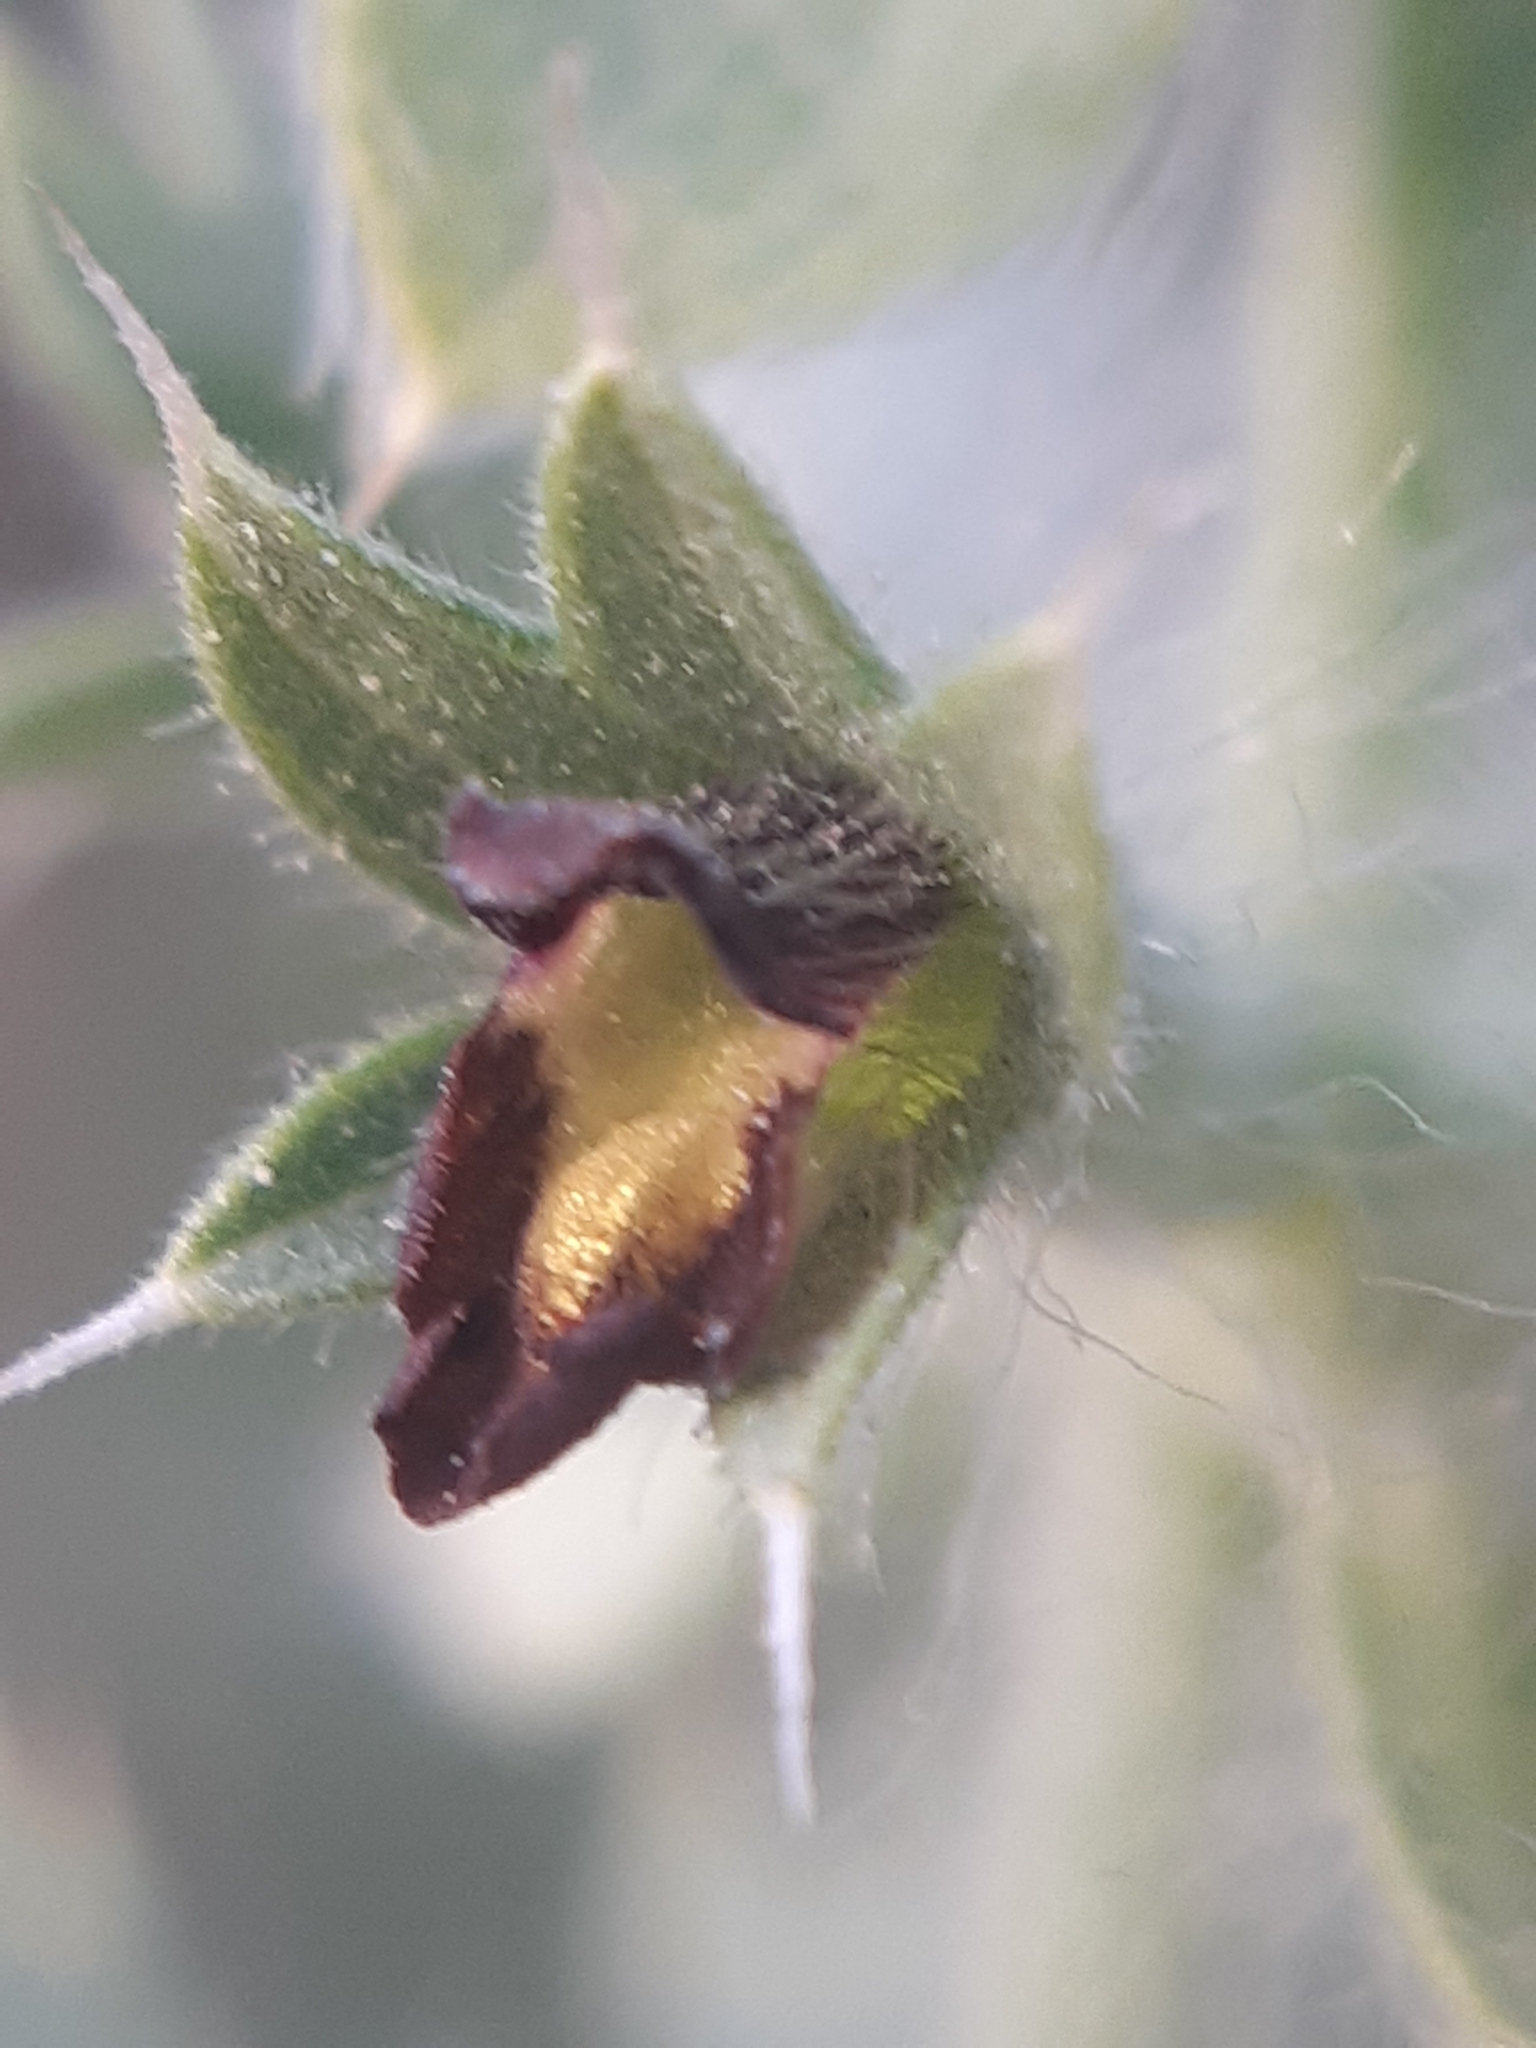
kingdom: Plantae
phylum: Tracheophyta
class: Magnoliopsida
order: Lamiales
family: Lamiaceae
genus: Sideritis
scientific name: Sideritis montana
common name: Mountain ironwort
